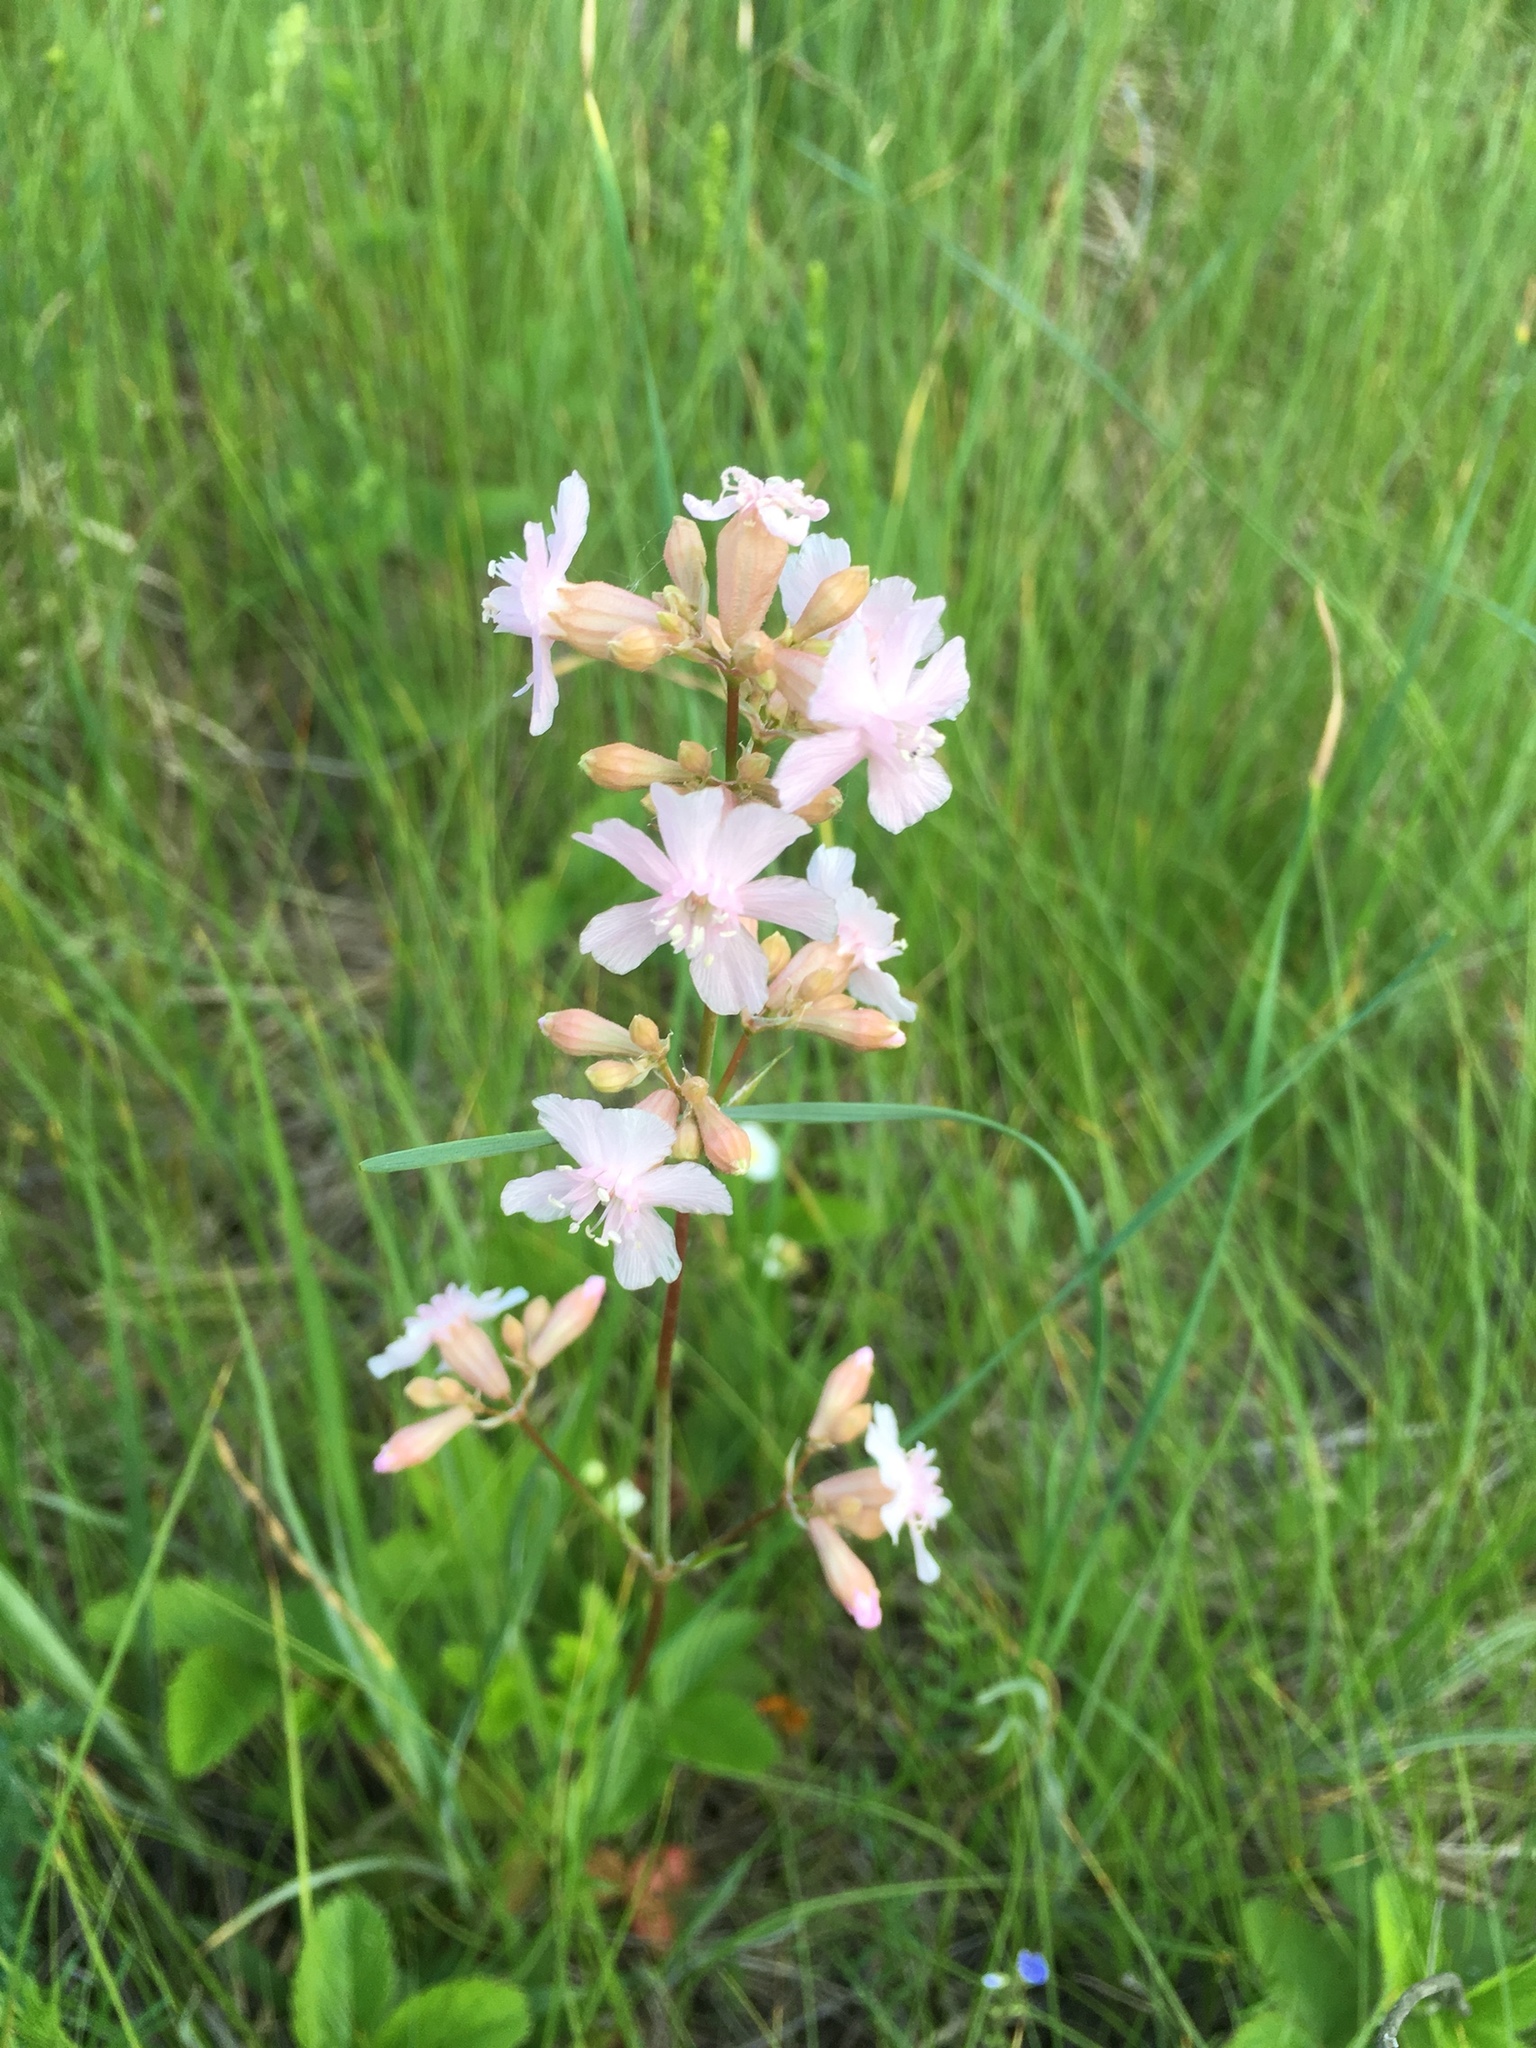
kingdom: Plantae
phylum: Tracheophyta
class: Magnoliopsida
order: Caryophyllales
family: Caryophyllaceae
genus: Viscaria
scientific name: Viscaria vulgaris
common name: Clammy campion
